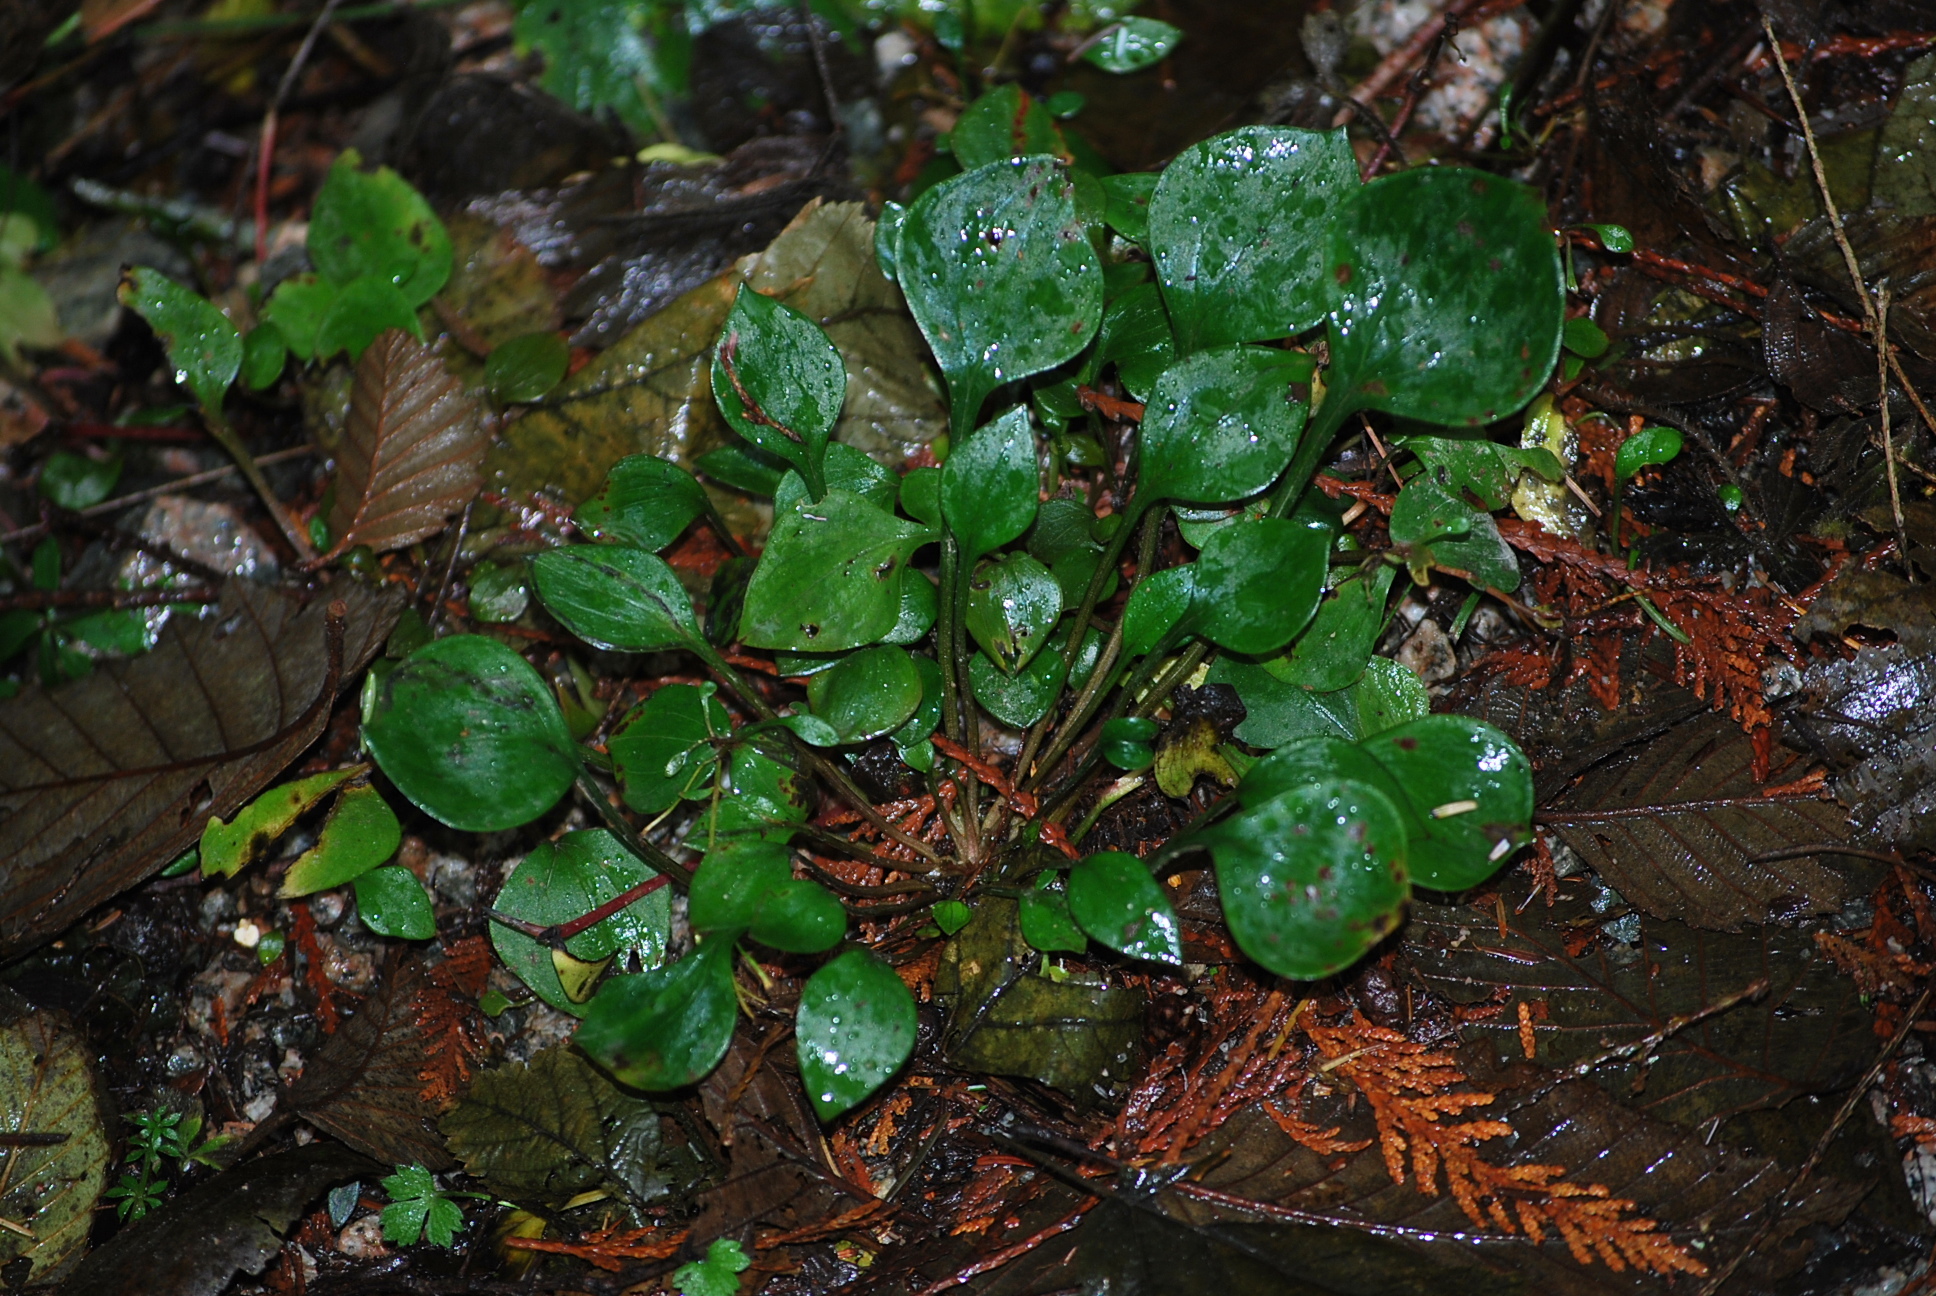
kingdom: Plantae
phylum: Tracheophyta
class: Magnoliopsida
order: Caryophyllales
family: Montiaceae
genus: Claytonia
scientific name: Claytonia sibirica
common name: Pink purslane
